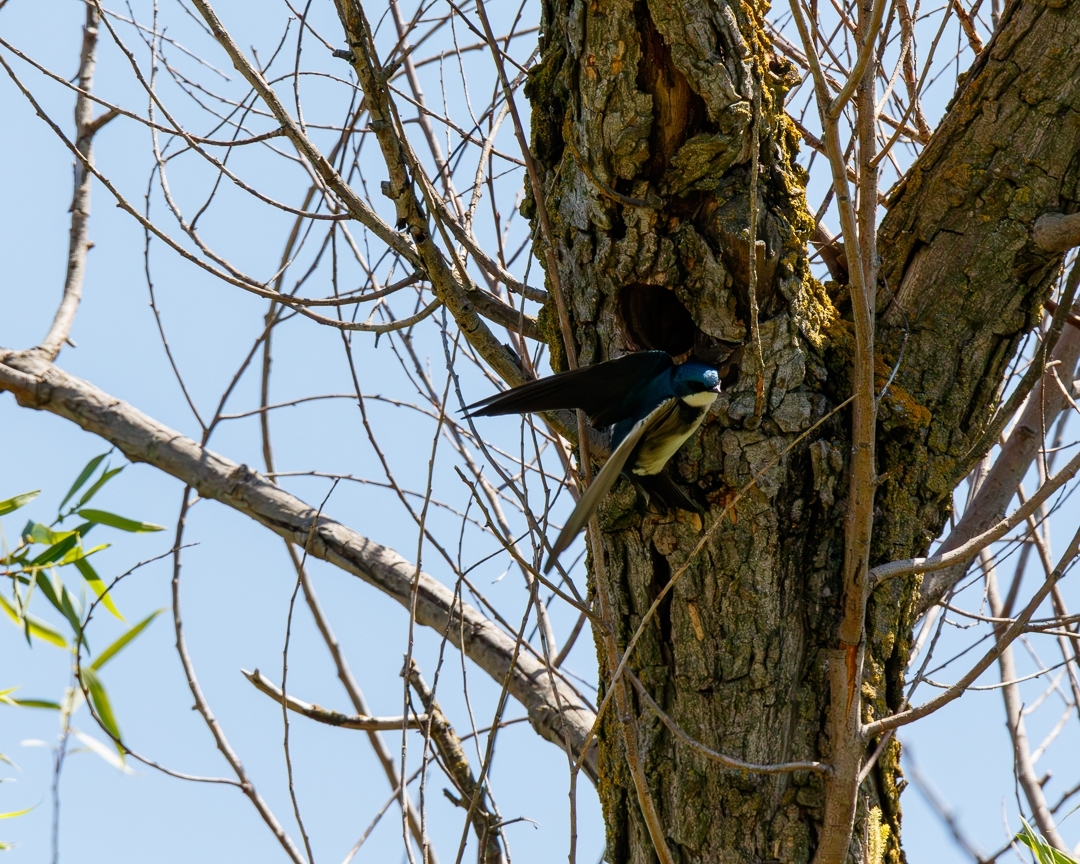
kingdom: Animalia
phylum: Chordata
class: Aves
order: Passeriformes
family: Hirundinidae
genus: Tachycineta
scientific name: Tachycineta bicolor
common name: Tree swallow
